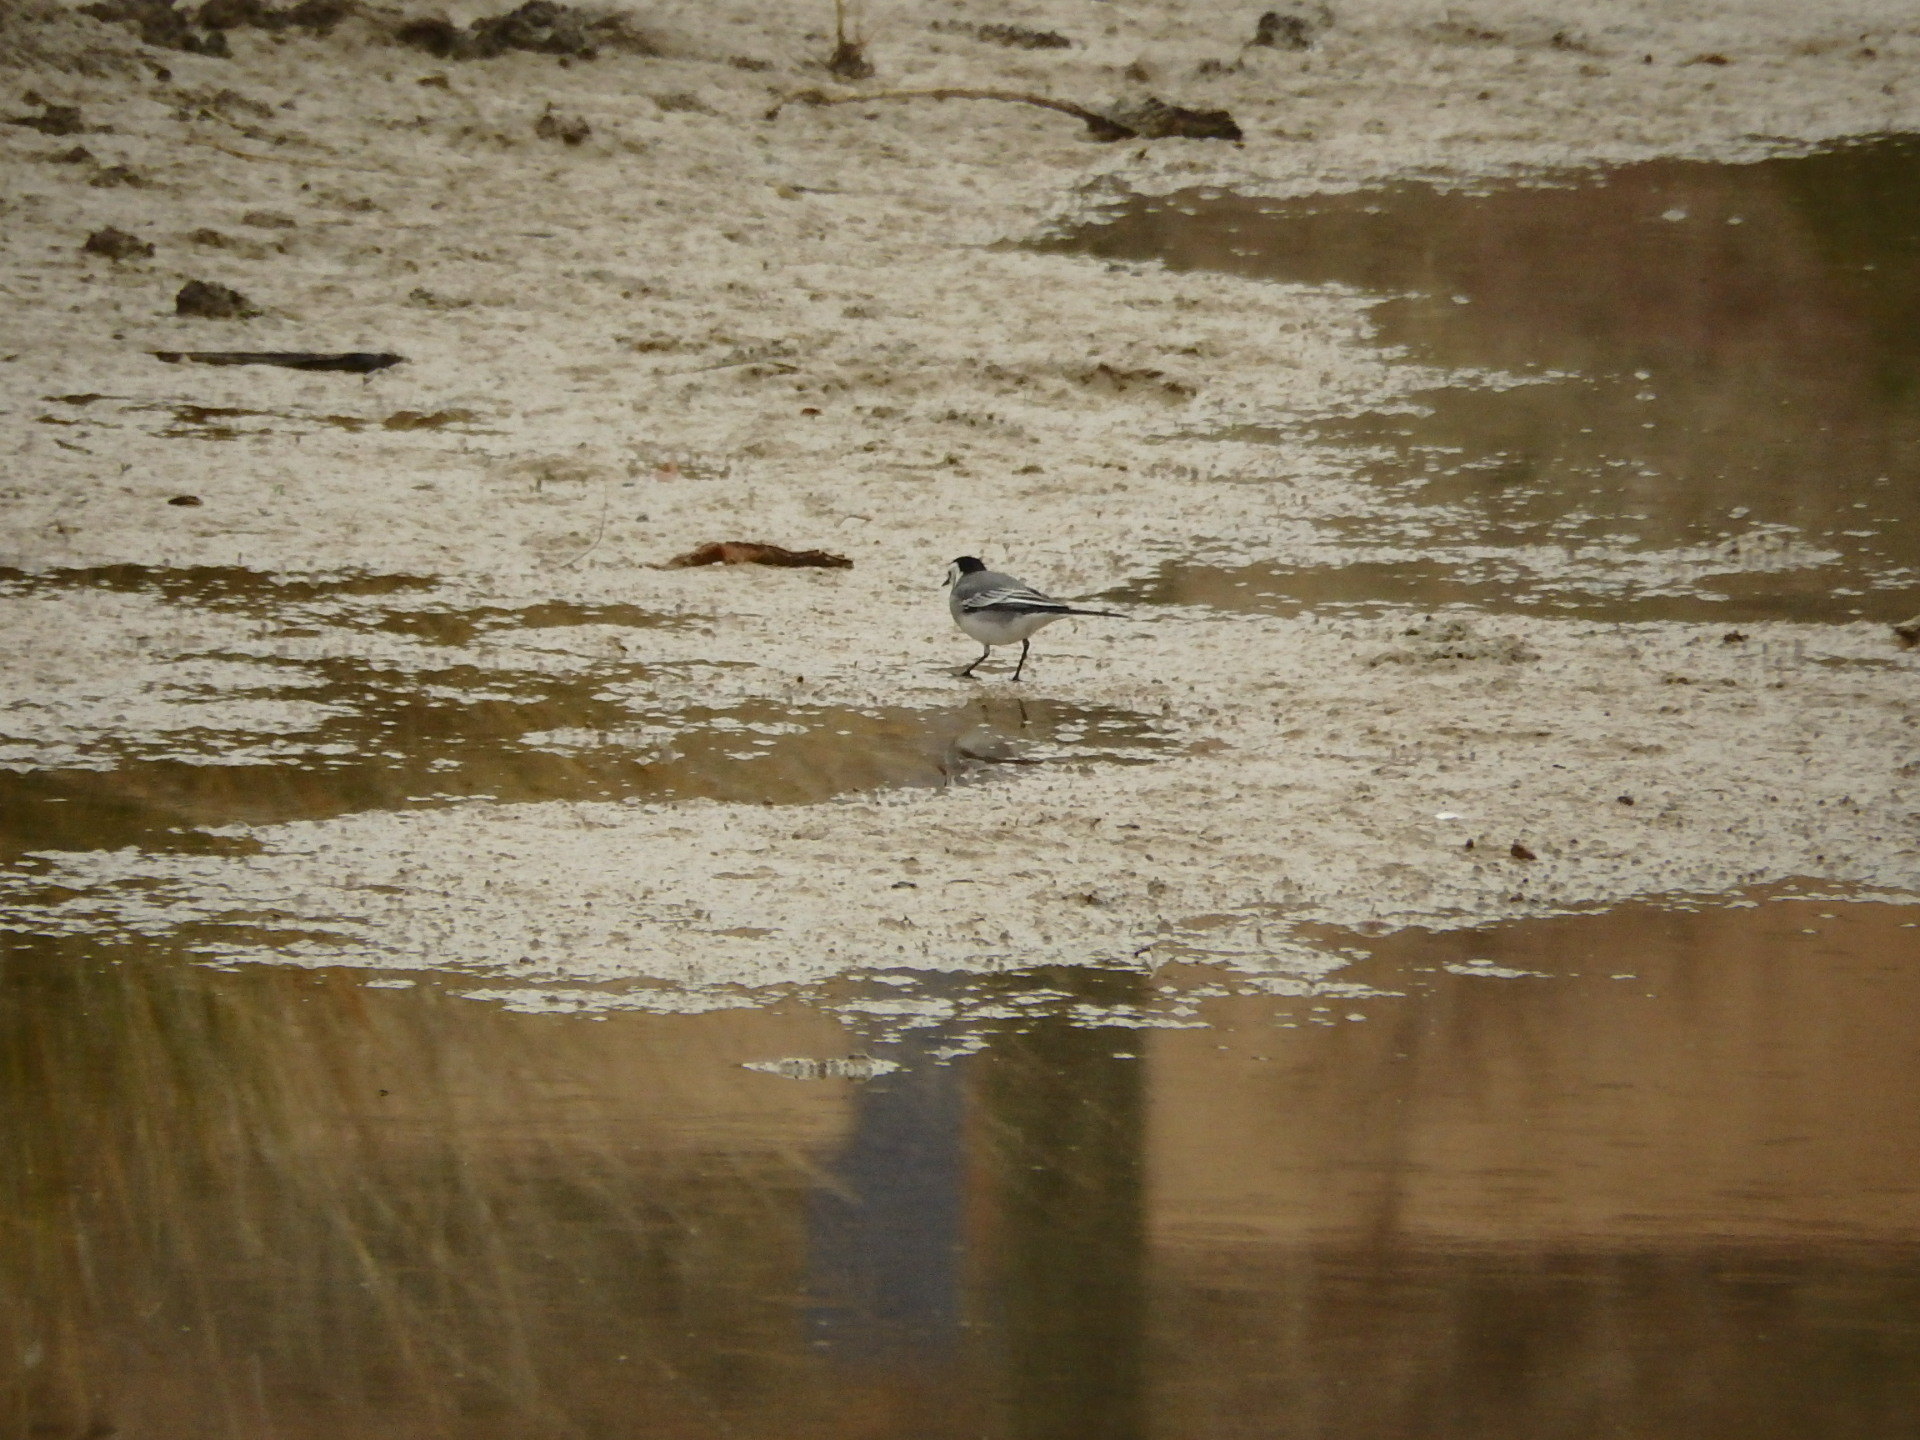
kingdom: Animalia
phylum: Chordata
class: Aves
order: Passeriformes
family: Motacillidae
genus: Motacilla
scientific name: Motacilla alba
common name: White wagtail
